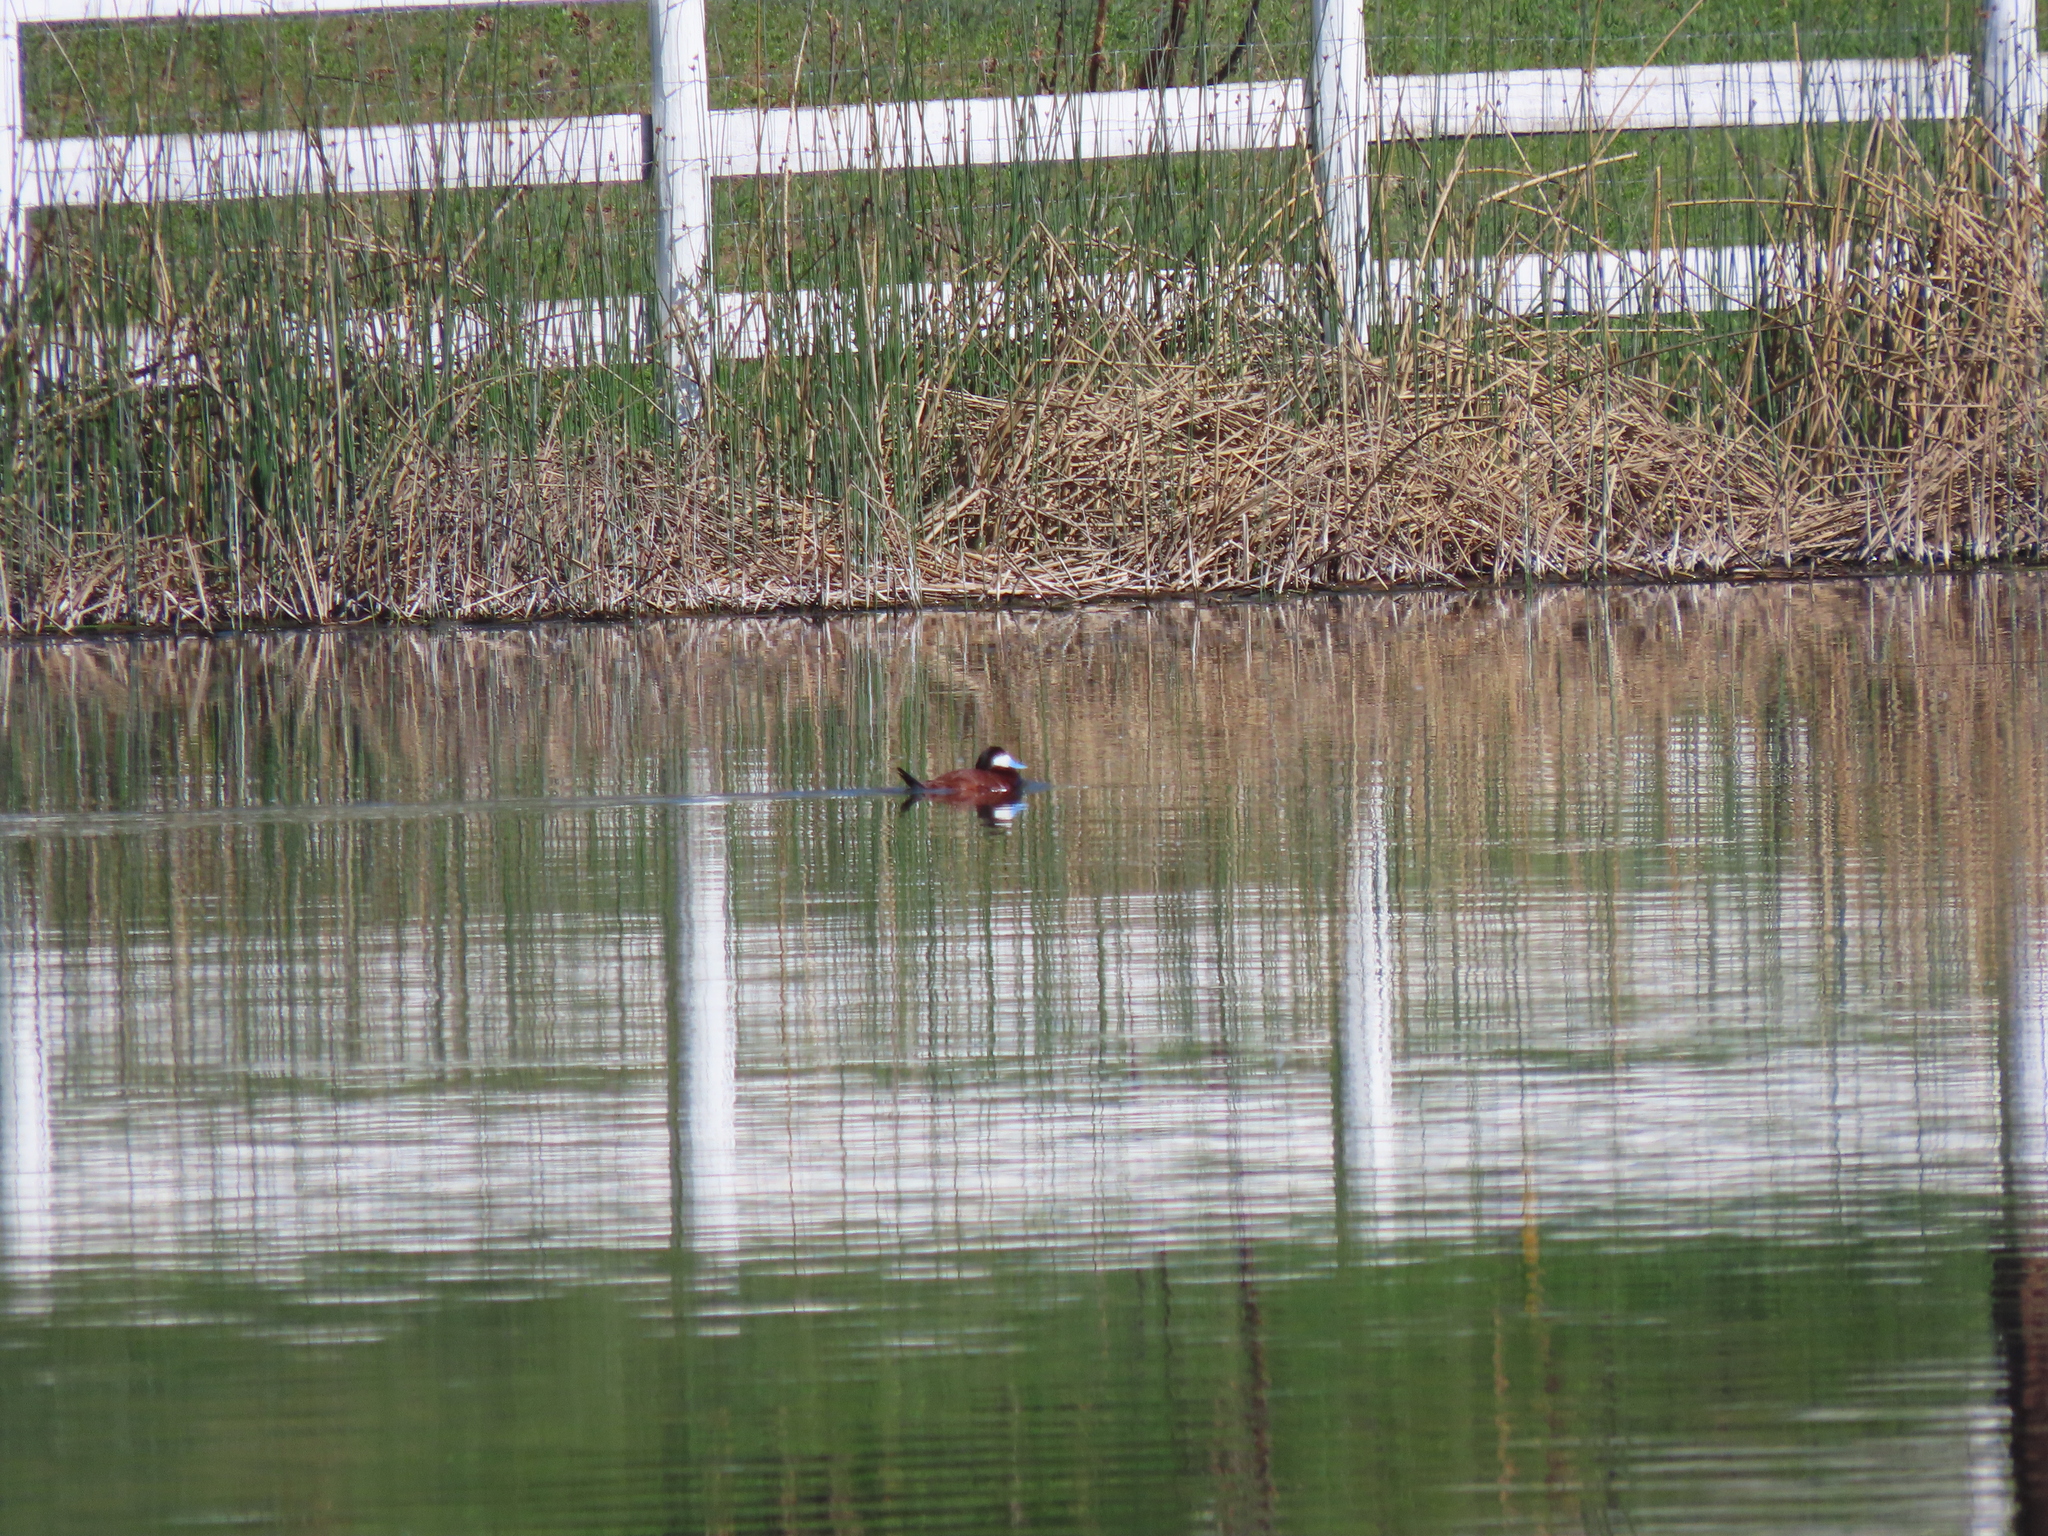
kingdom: Animalia
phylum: Chordata
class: Aves
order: Anseriformes
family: Anatidae
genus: Oxyura
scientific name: Oxyura jamaicensis
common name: Ruddy duck
